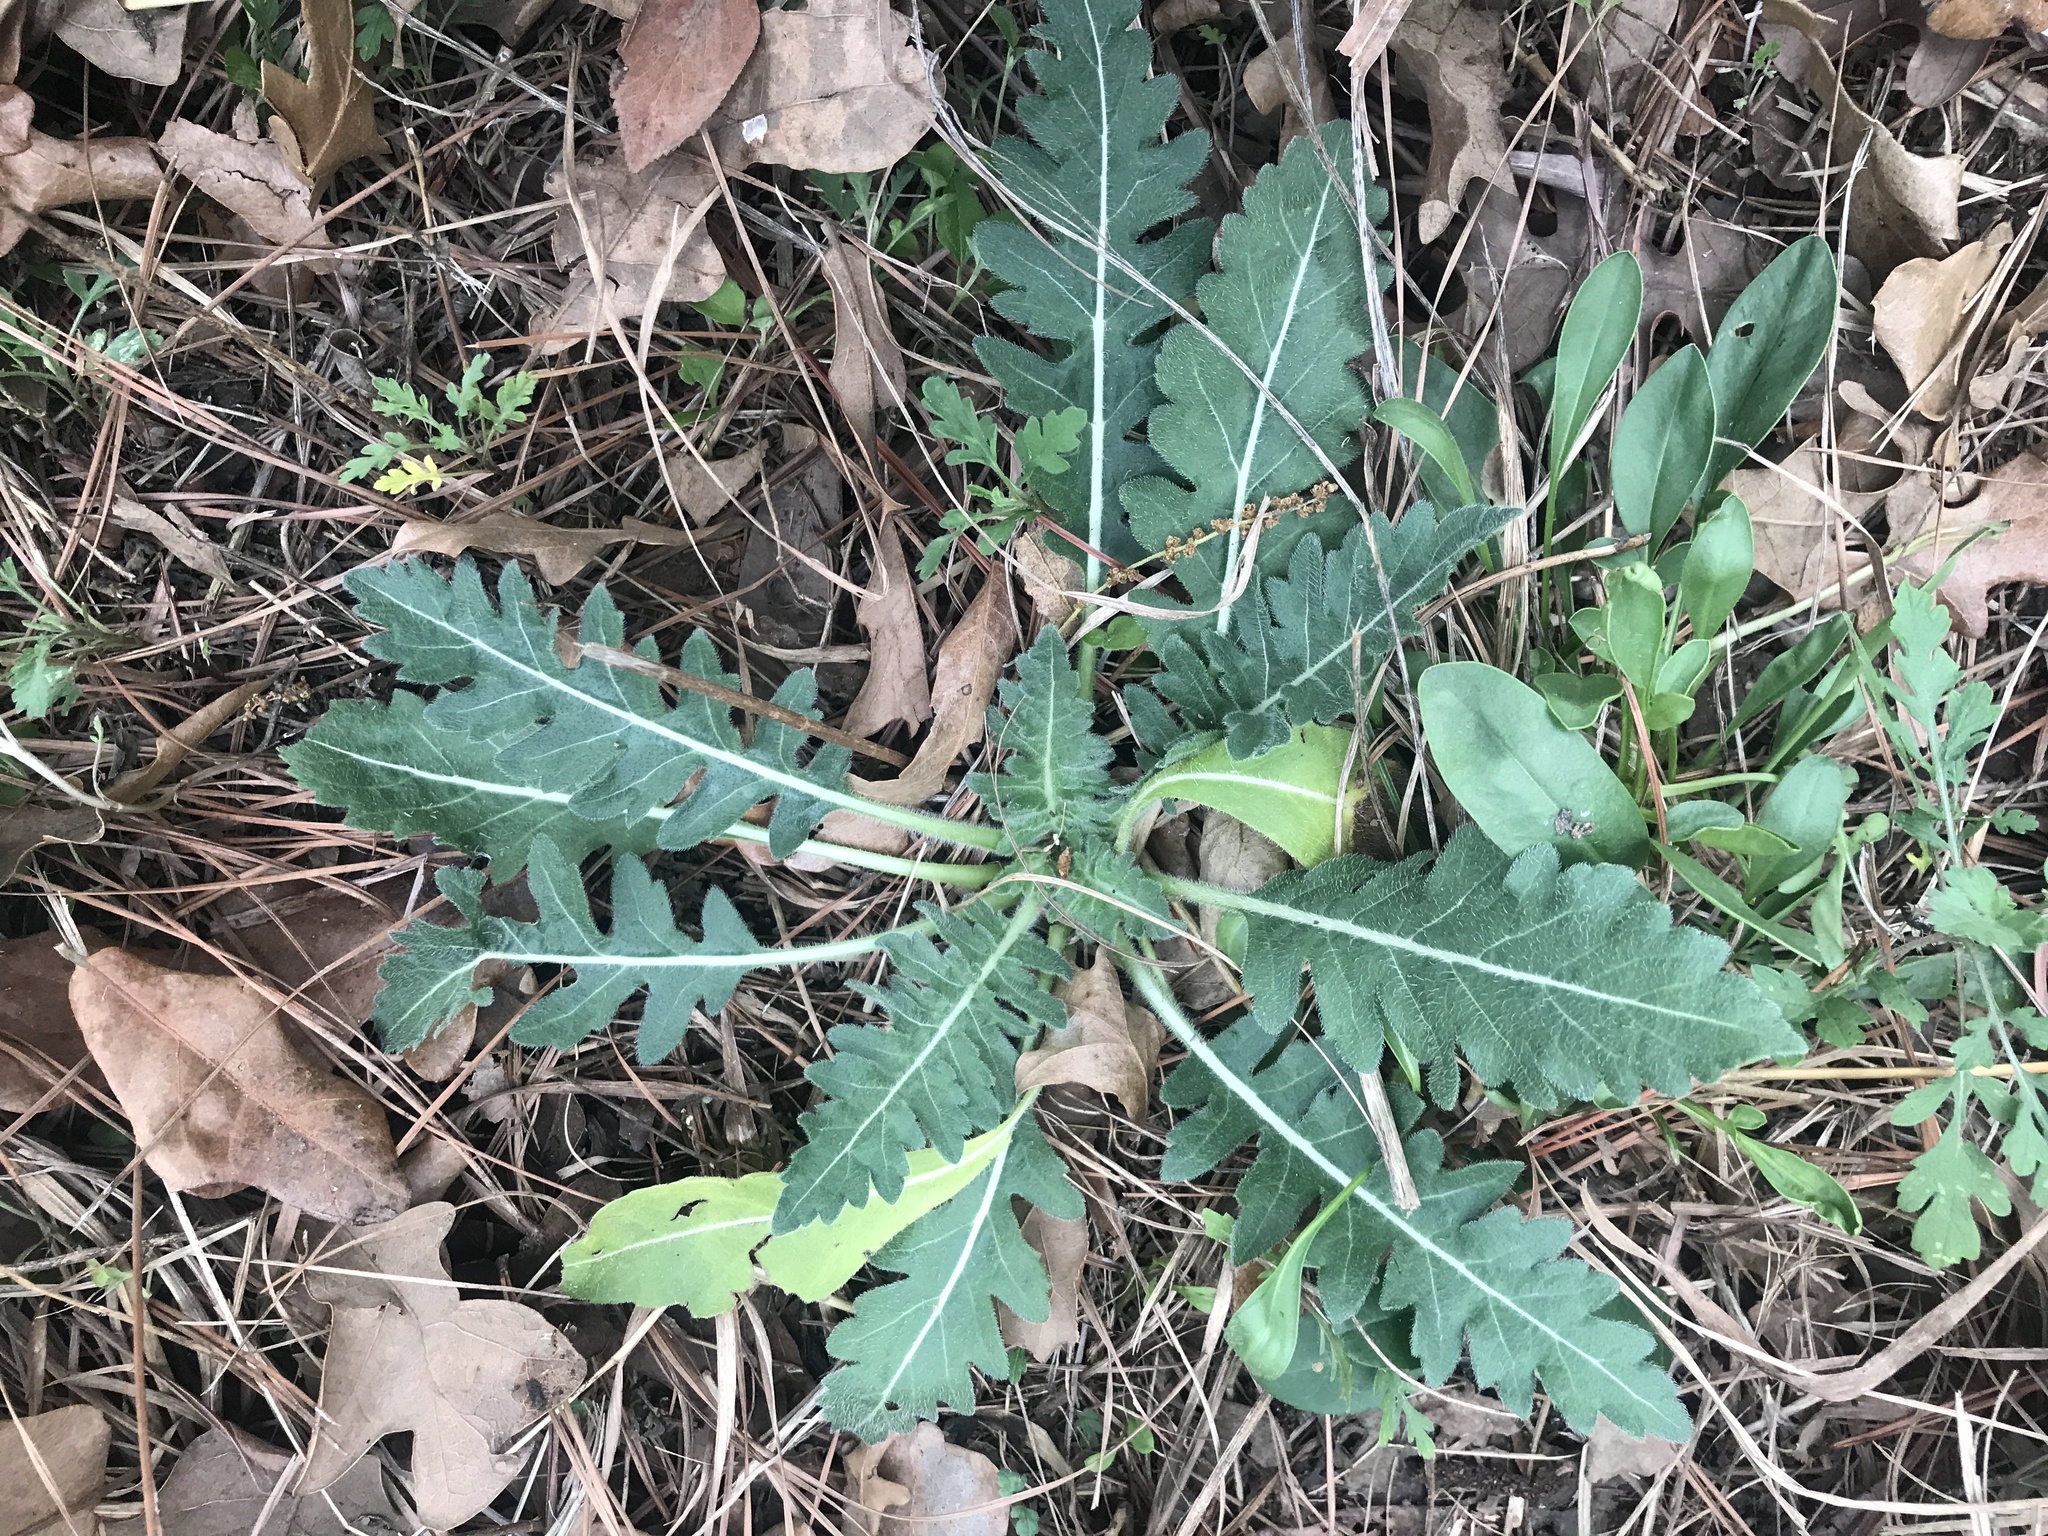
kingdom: Plantae
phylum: Tracheophyta
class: Magnoliopsida
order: Asterales
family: Asteraceae
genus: Engelmannia
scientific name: Engelmannia peristenia
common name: Engelmann's daisy
